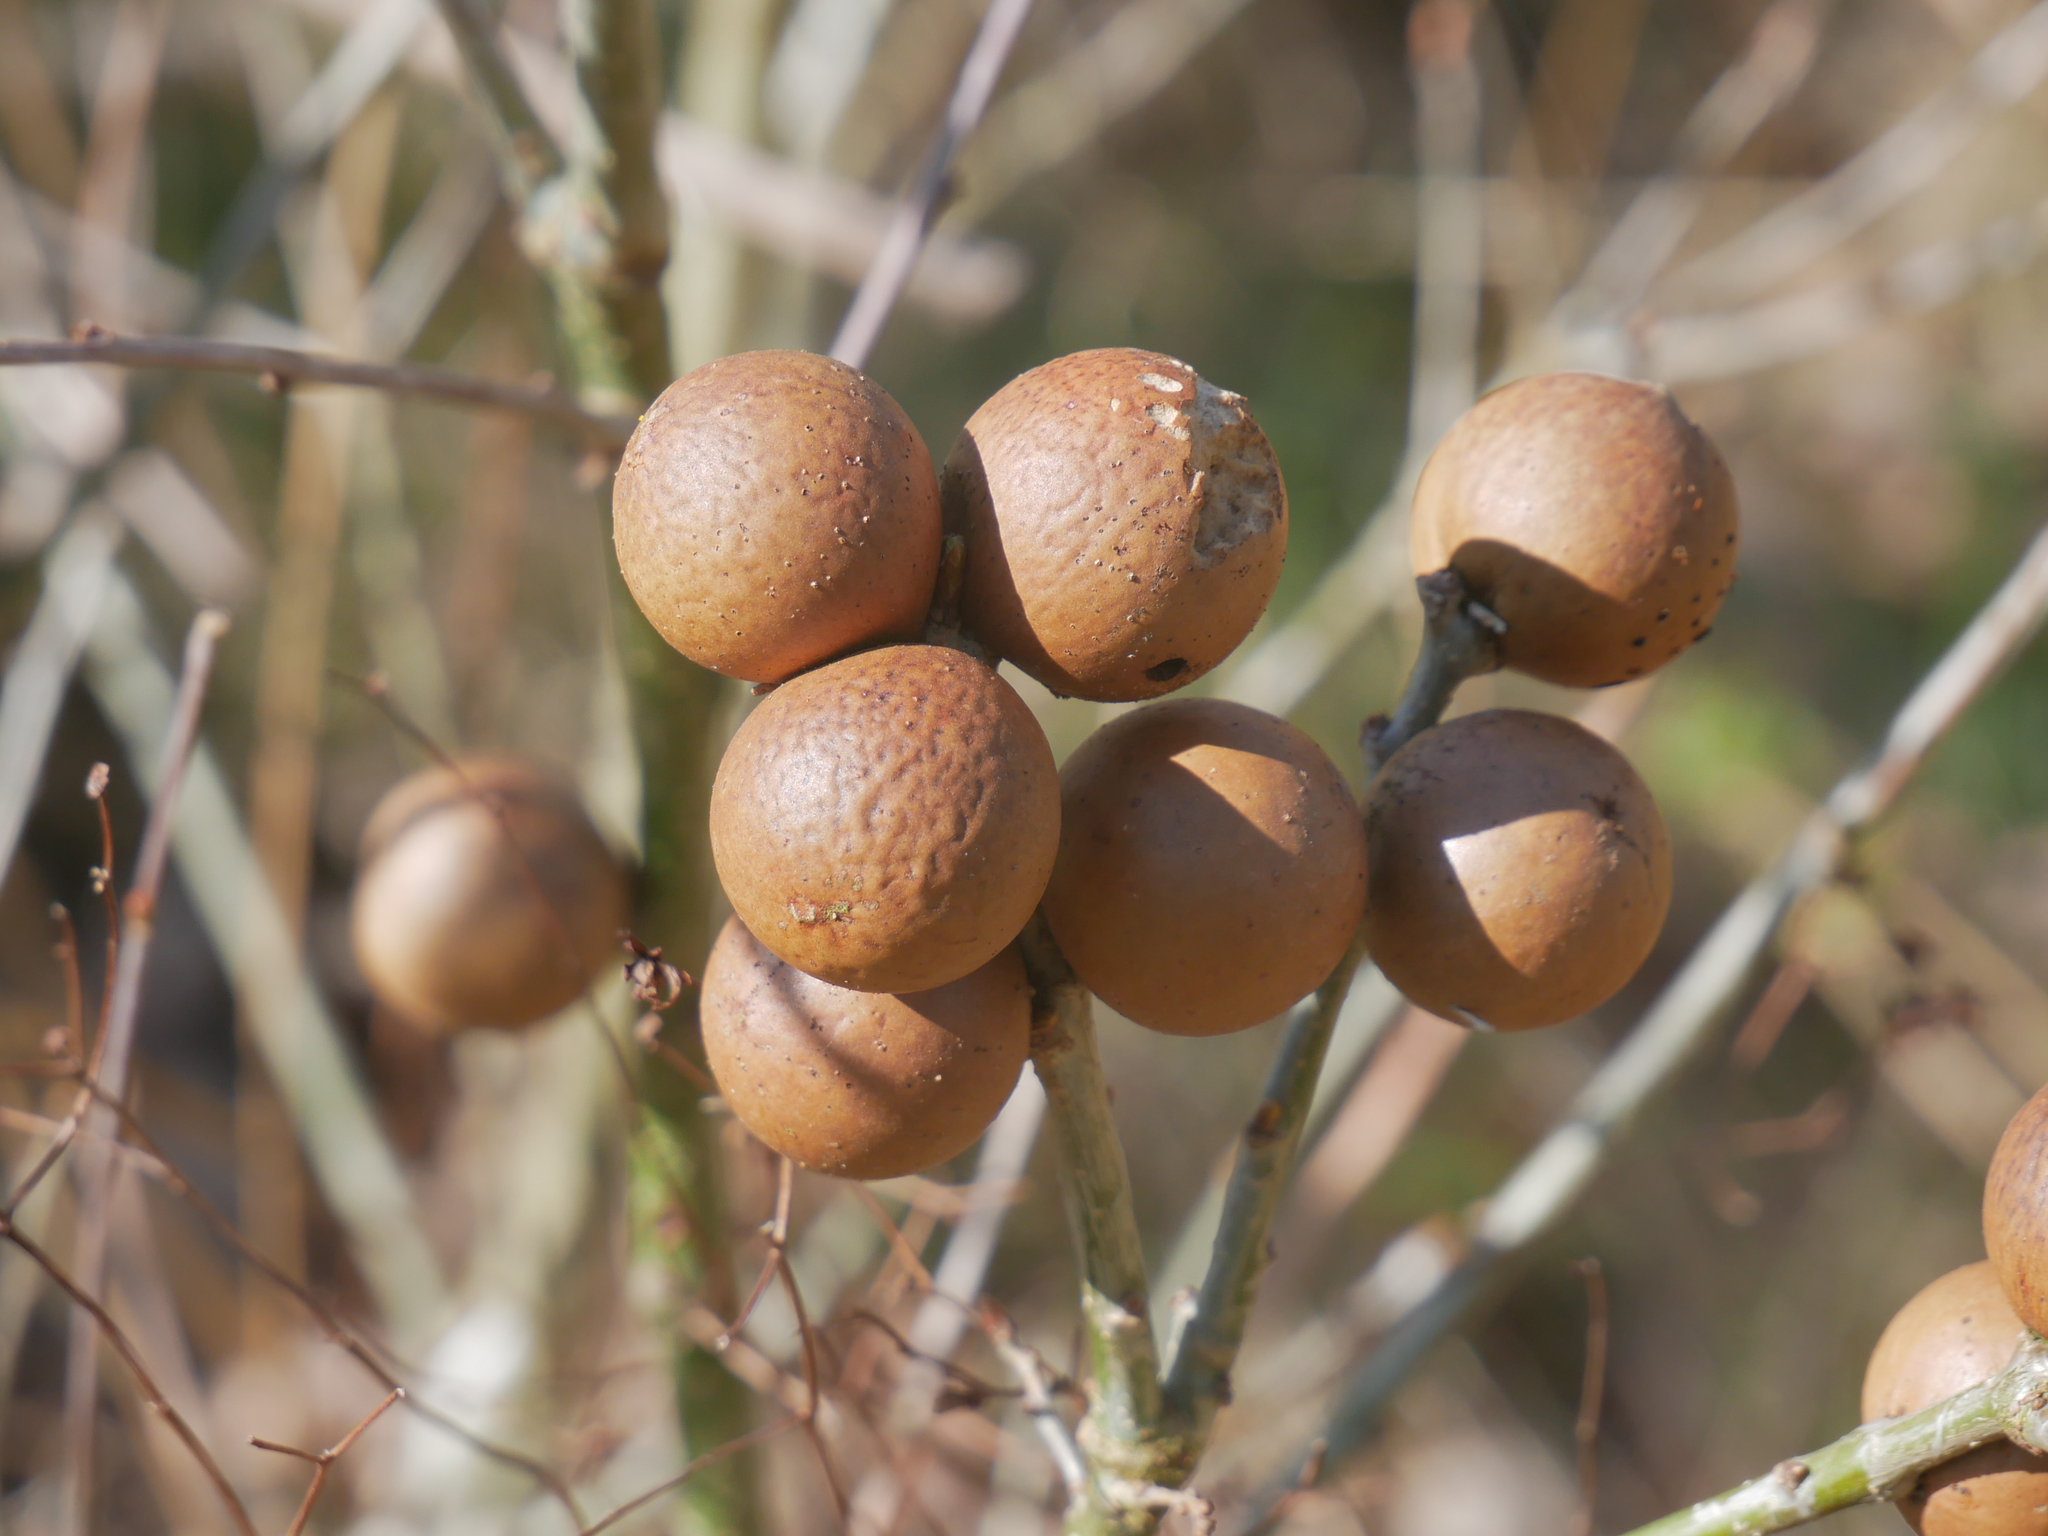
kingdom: Animalia
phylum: Arthropoda
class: Insecta
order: Hymenoptera
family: Cynipidae
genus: Andricus
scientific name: Andricus kollari
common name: Marble gall
